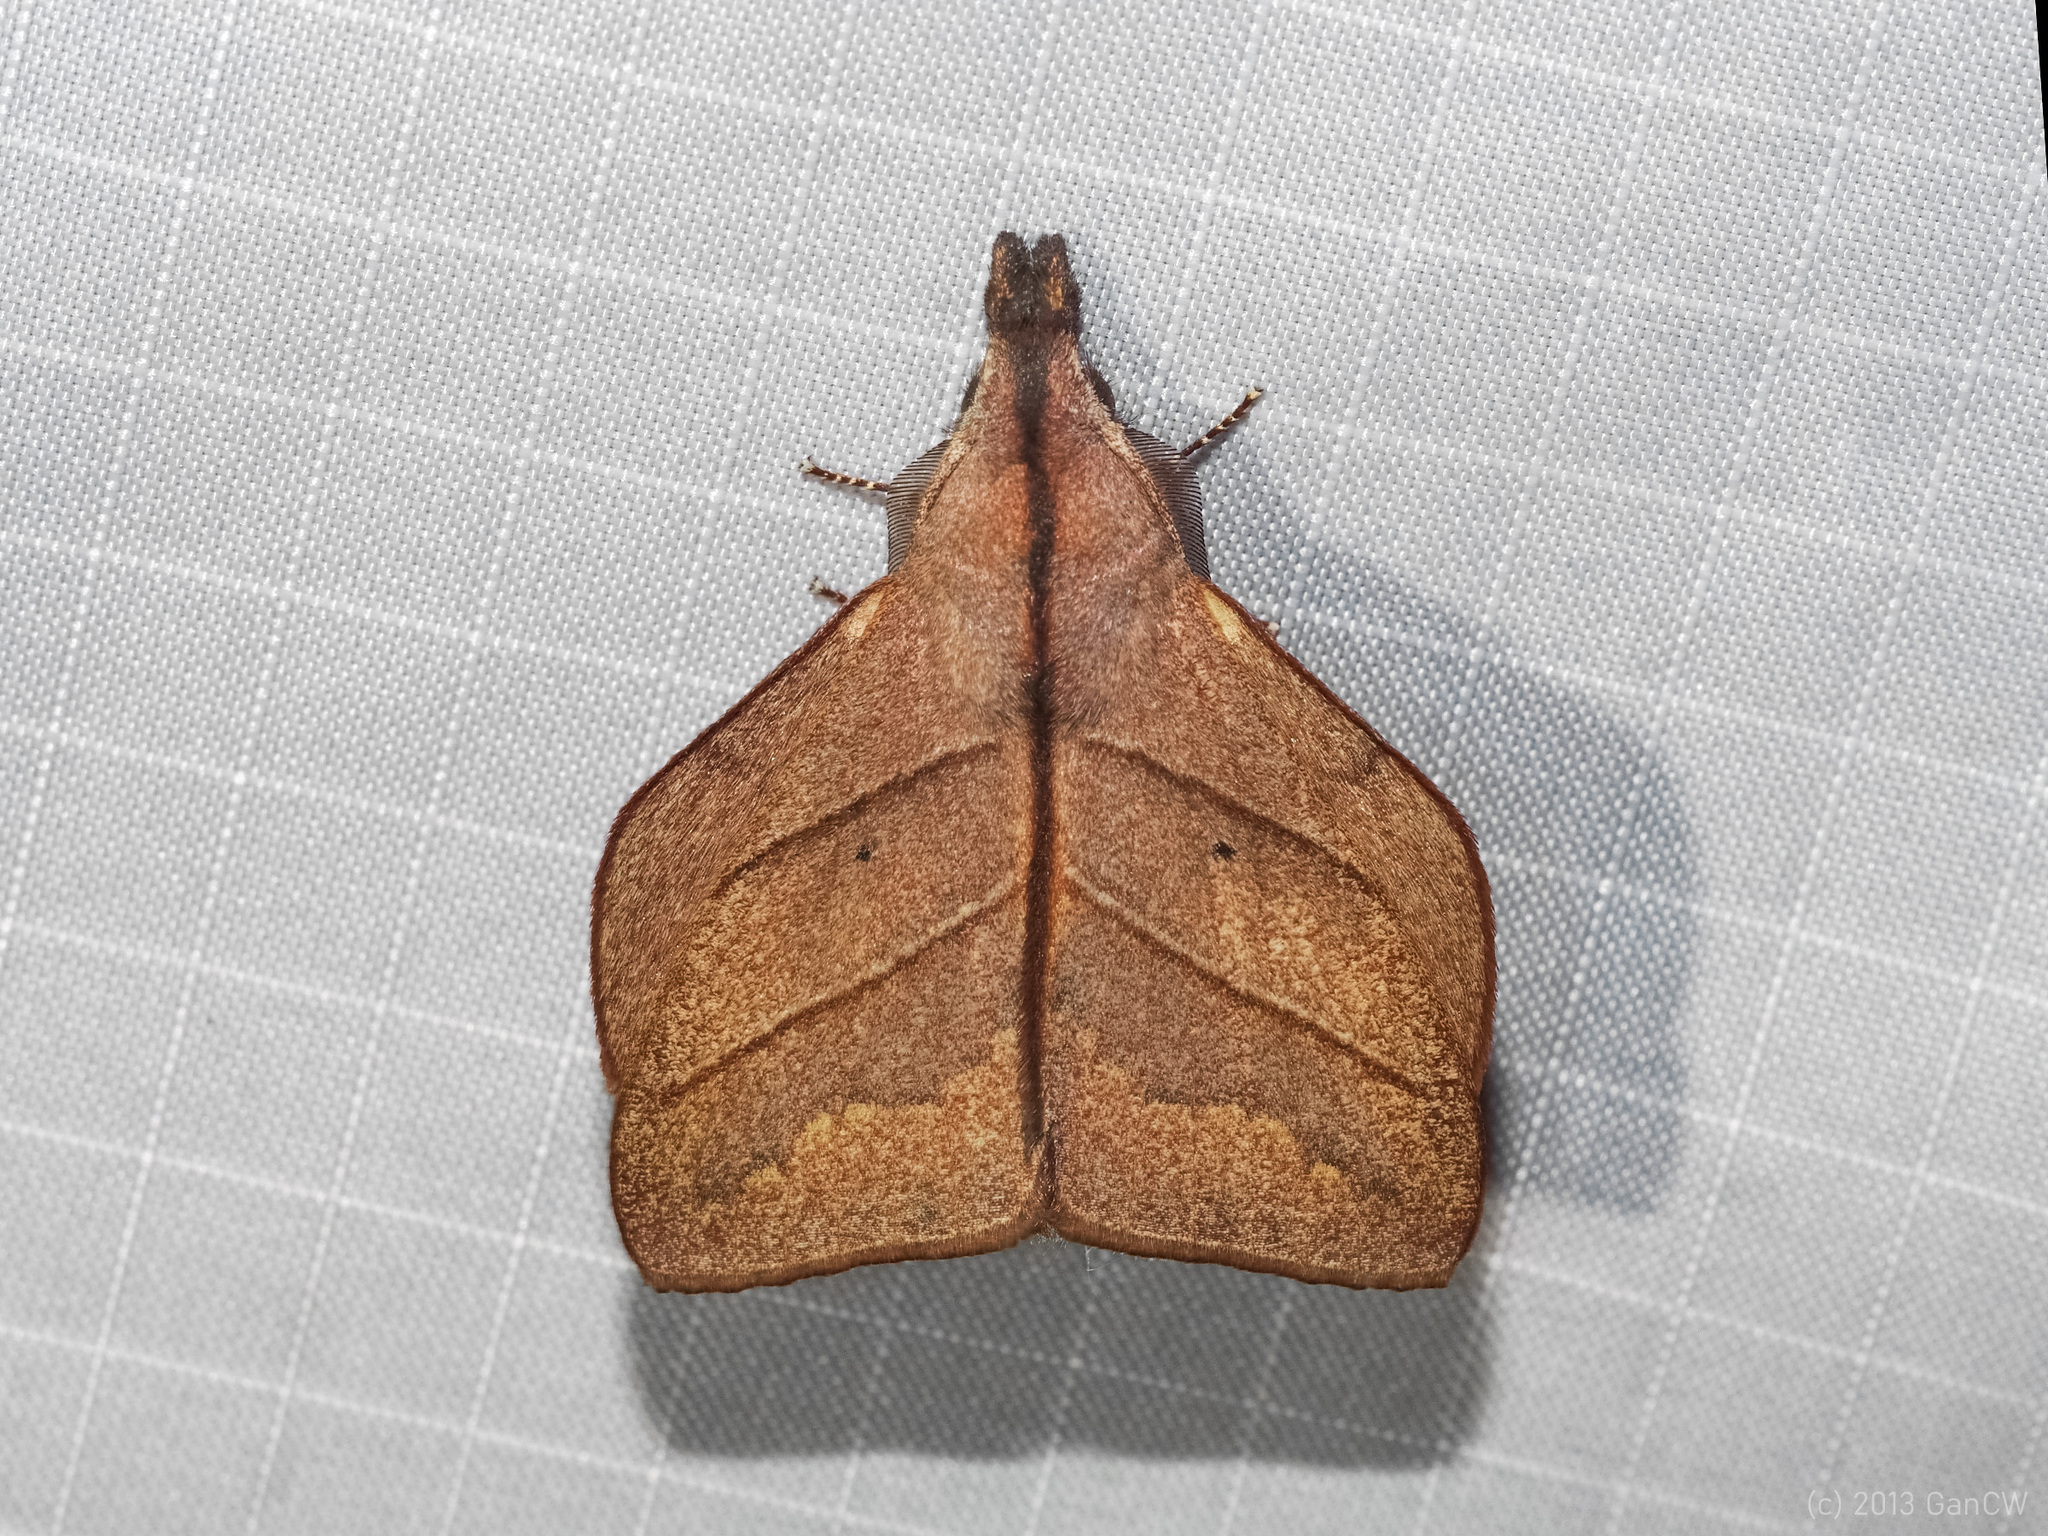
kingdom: Animalia
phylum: Arthropoda
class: Insecta
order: Lepidoptera
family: Lasiocampidae
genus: Arguda
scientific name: Arguda rectilinea
